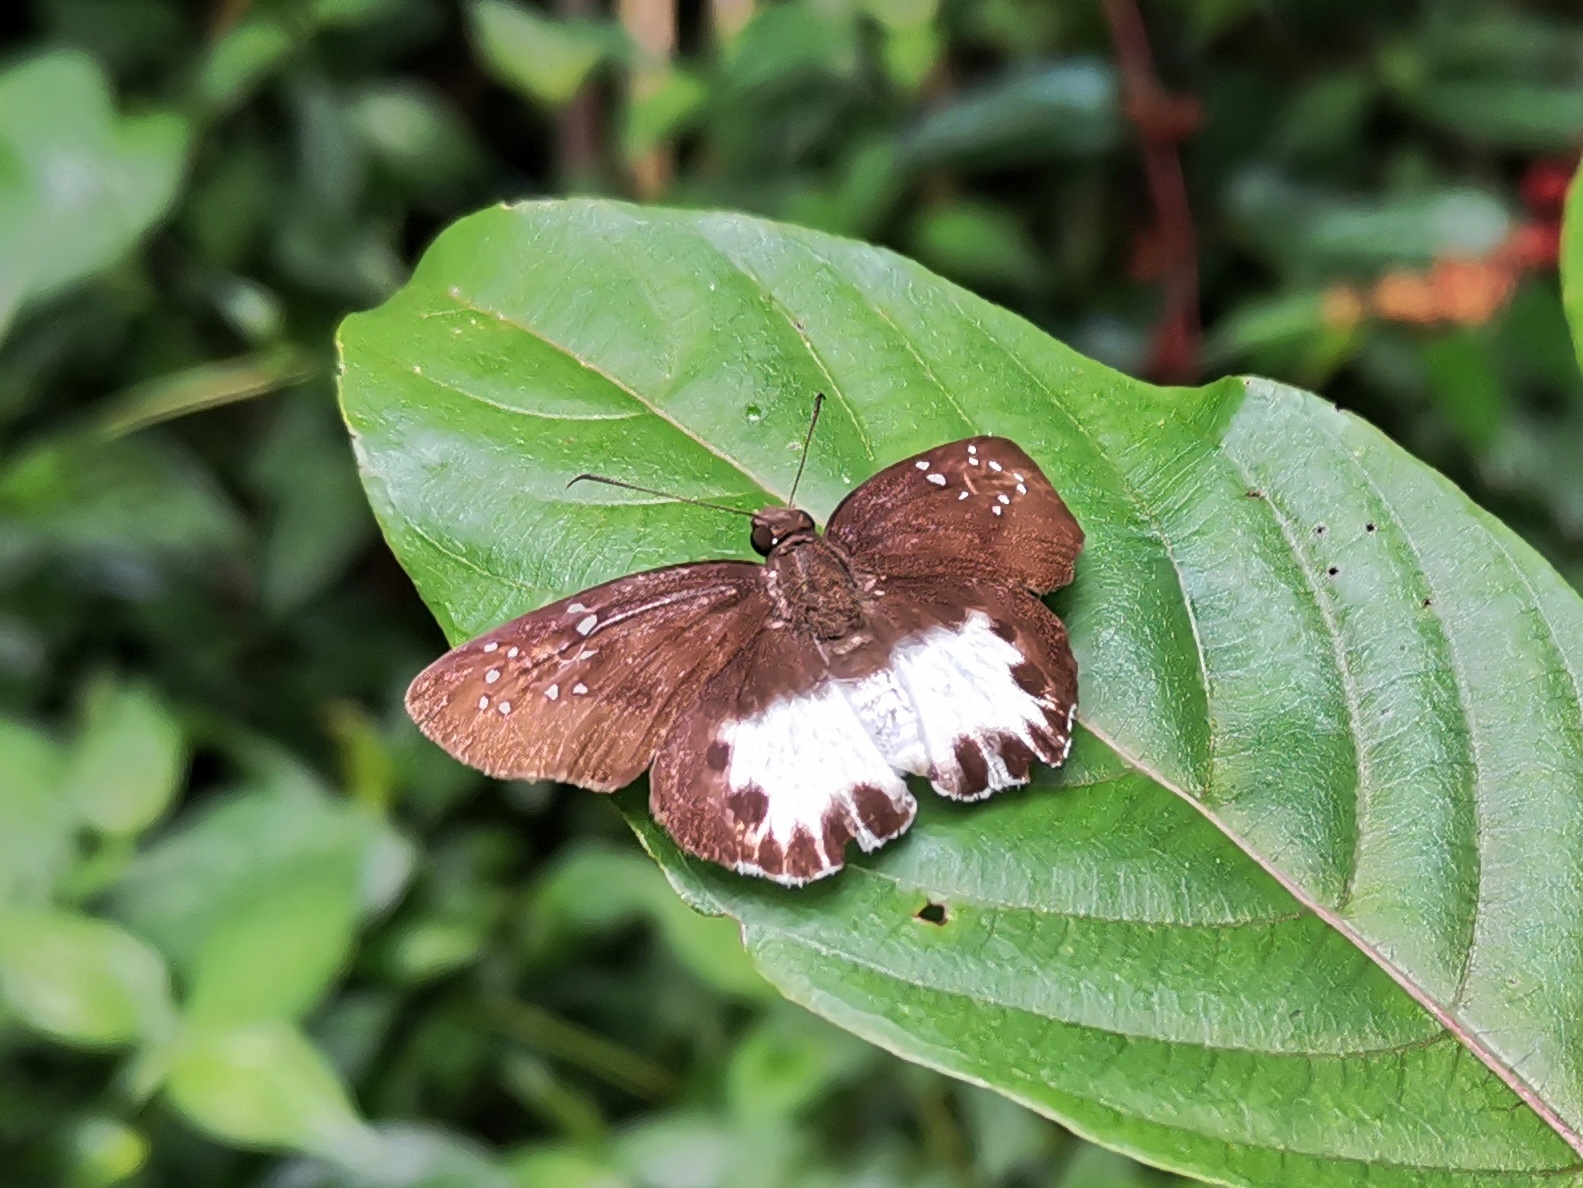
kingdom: Animalia
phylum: Arthropoda
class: Insecta
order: Lepidoptera
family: Hesperiidae
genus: Tagiades
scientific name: Tagiades litigiosa
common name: Water snow flat
